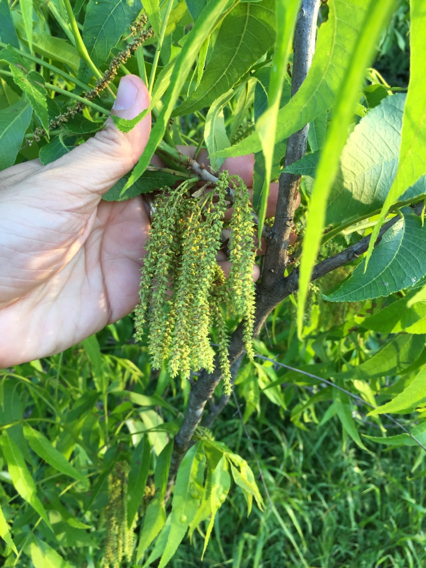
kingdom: Plantae
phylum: Tracheophyta
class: Magnoliopsida
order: Fagales
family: Juglandaceae
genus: Carya
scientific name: Carya illinoinensis
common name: Pecan
